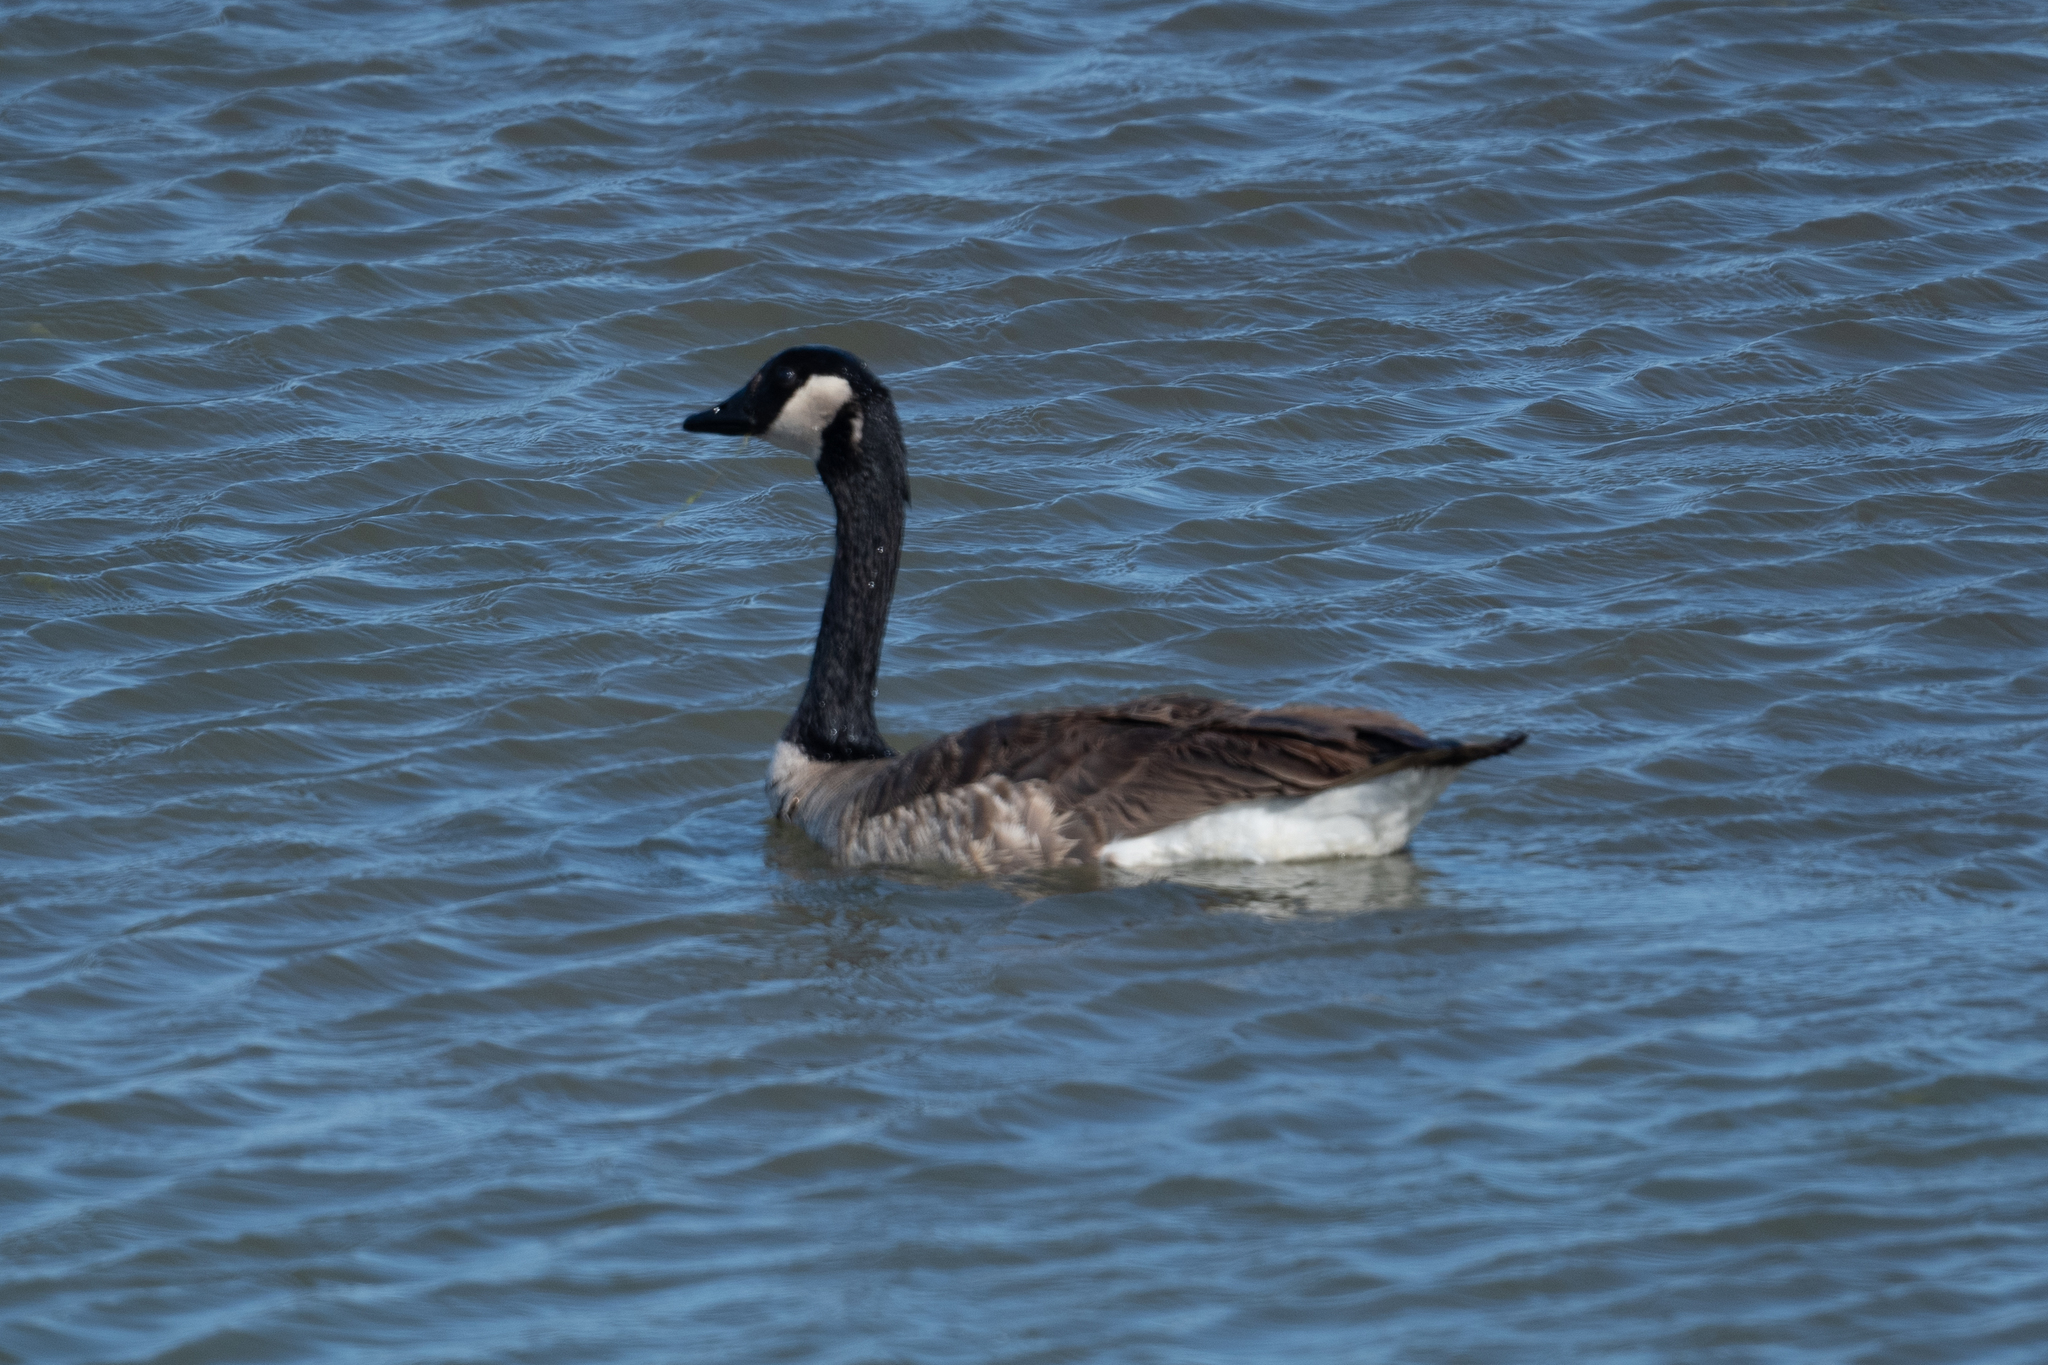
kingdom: Animalia
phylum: Chordata
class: Aves
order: Anseriformes
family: Anatidae
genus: Branta
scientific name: Branta canadensis
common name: Canada goose
